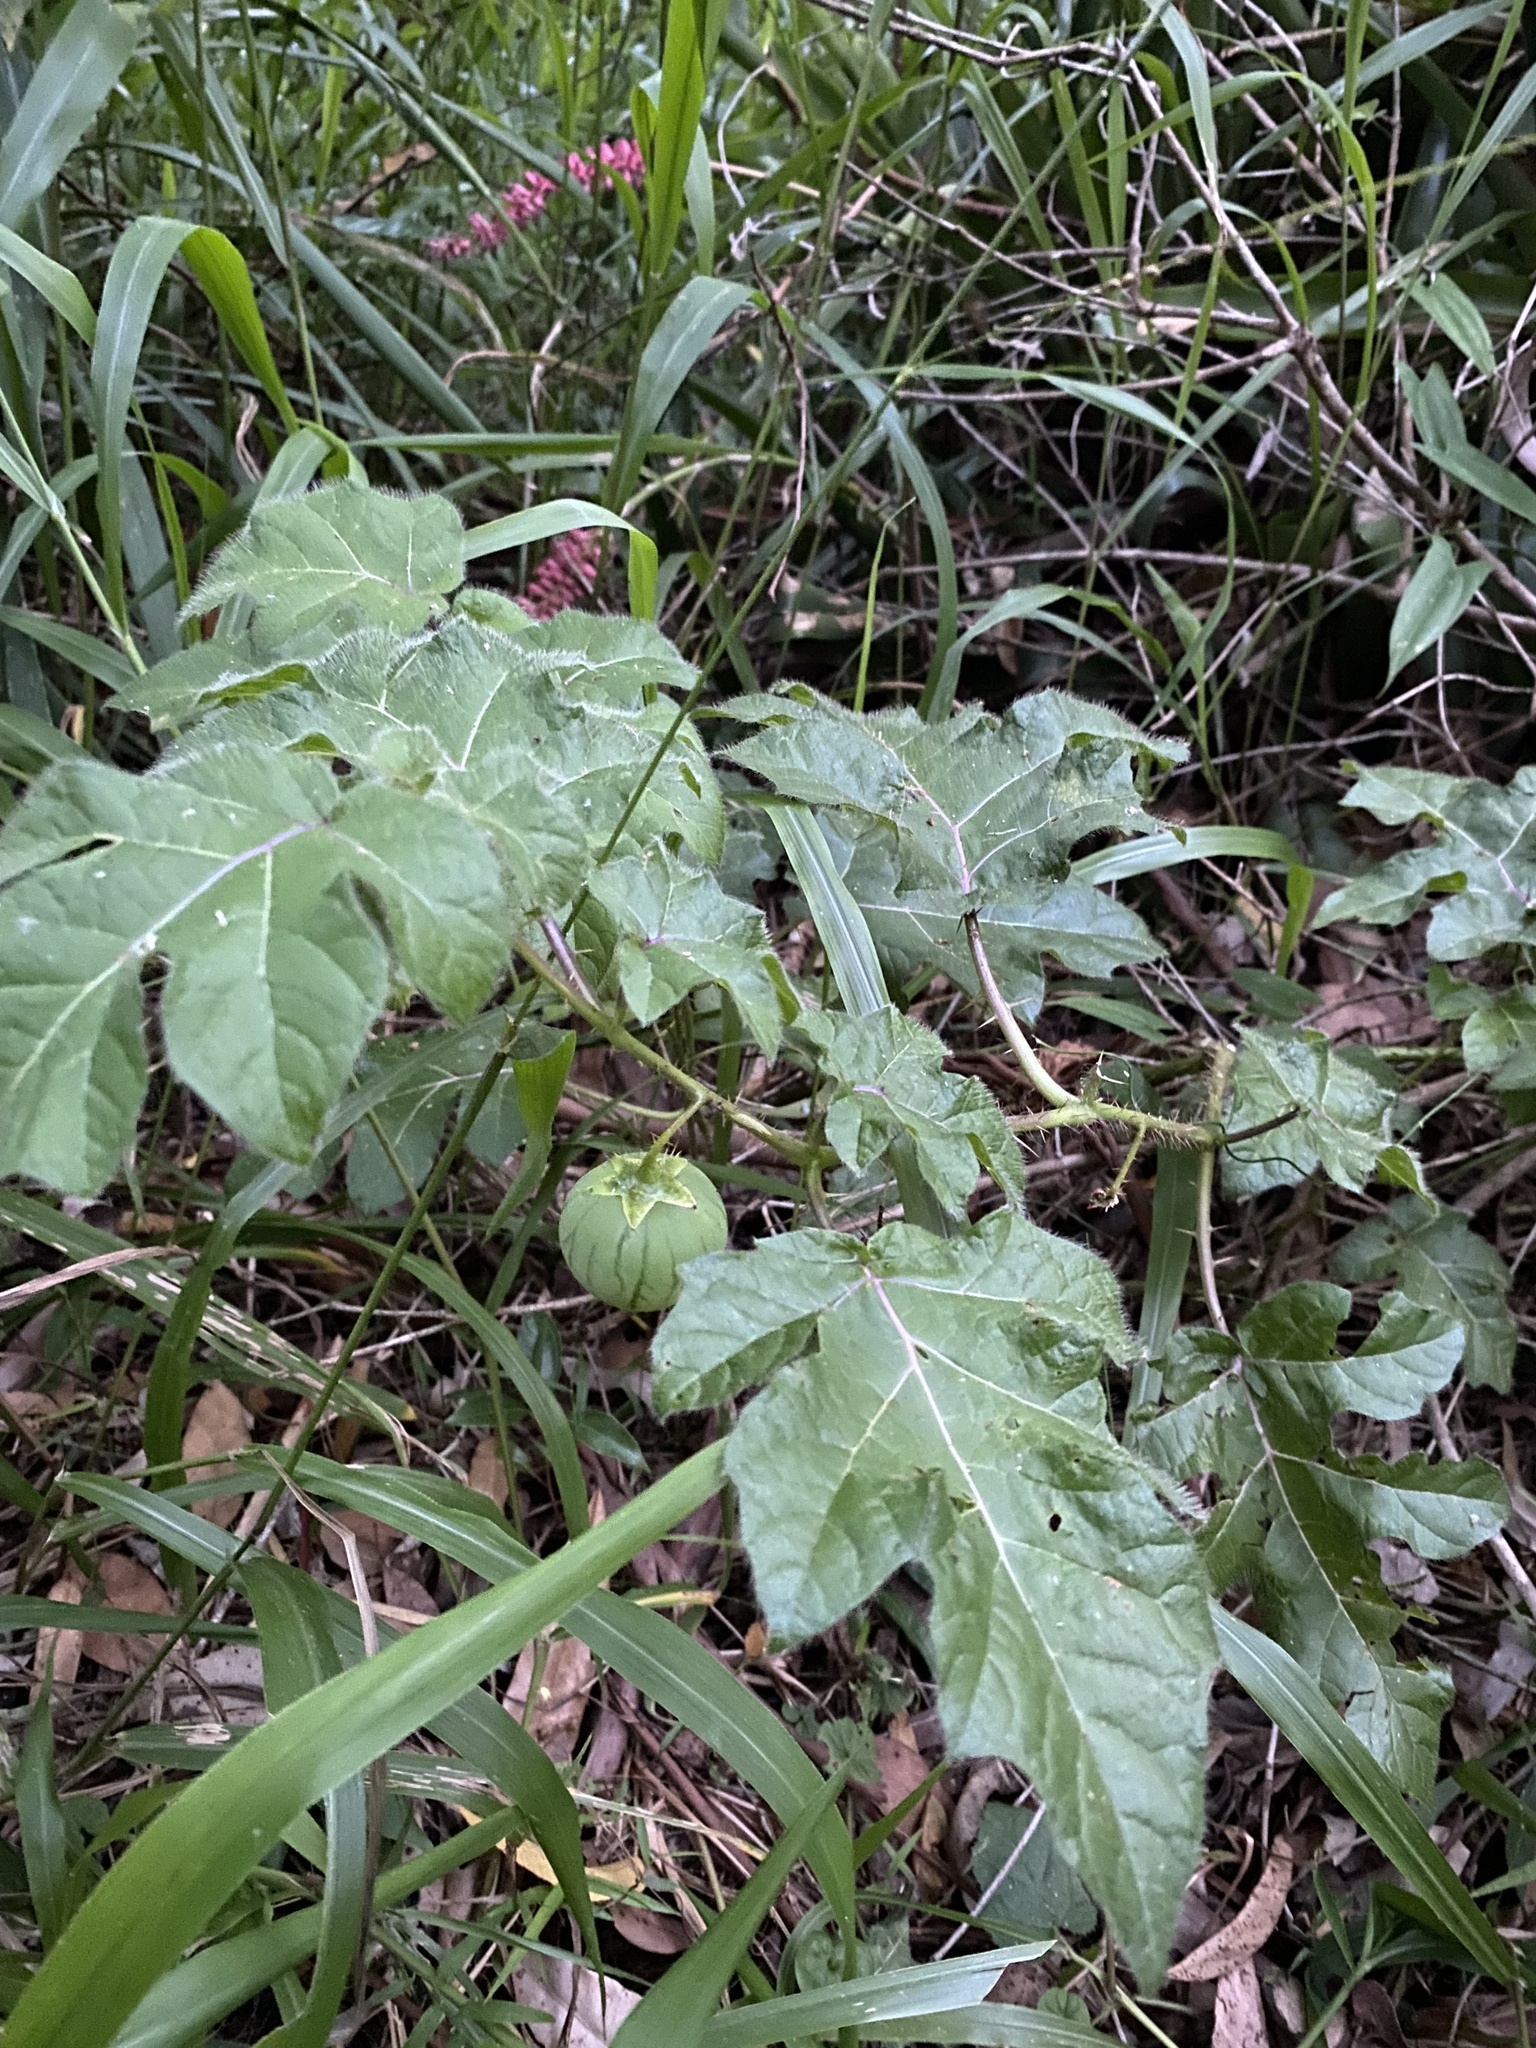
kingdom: Plantae
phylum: Tracheophyta
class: Magnoliopsida
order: Solanales
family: Solanaceae
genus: Solanum
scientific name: Solanum capsicoides
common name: Cockroach berry
